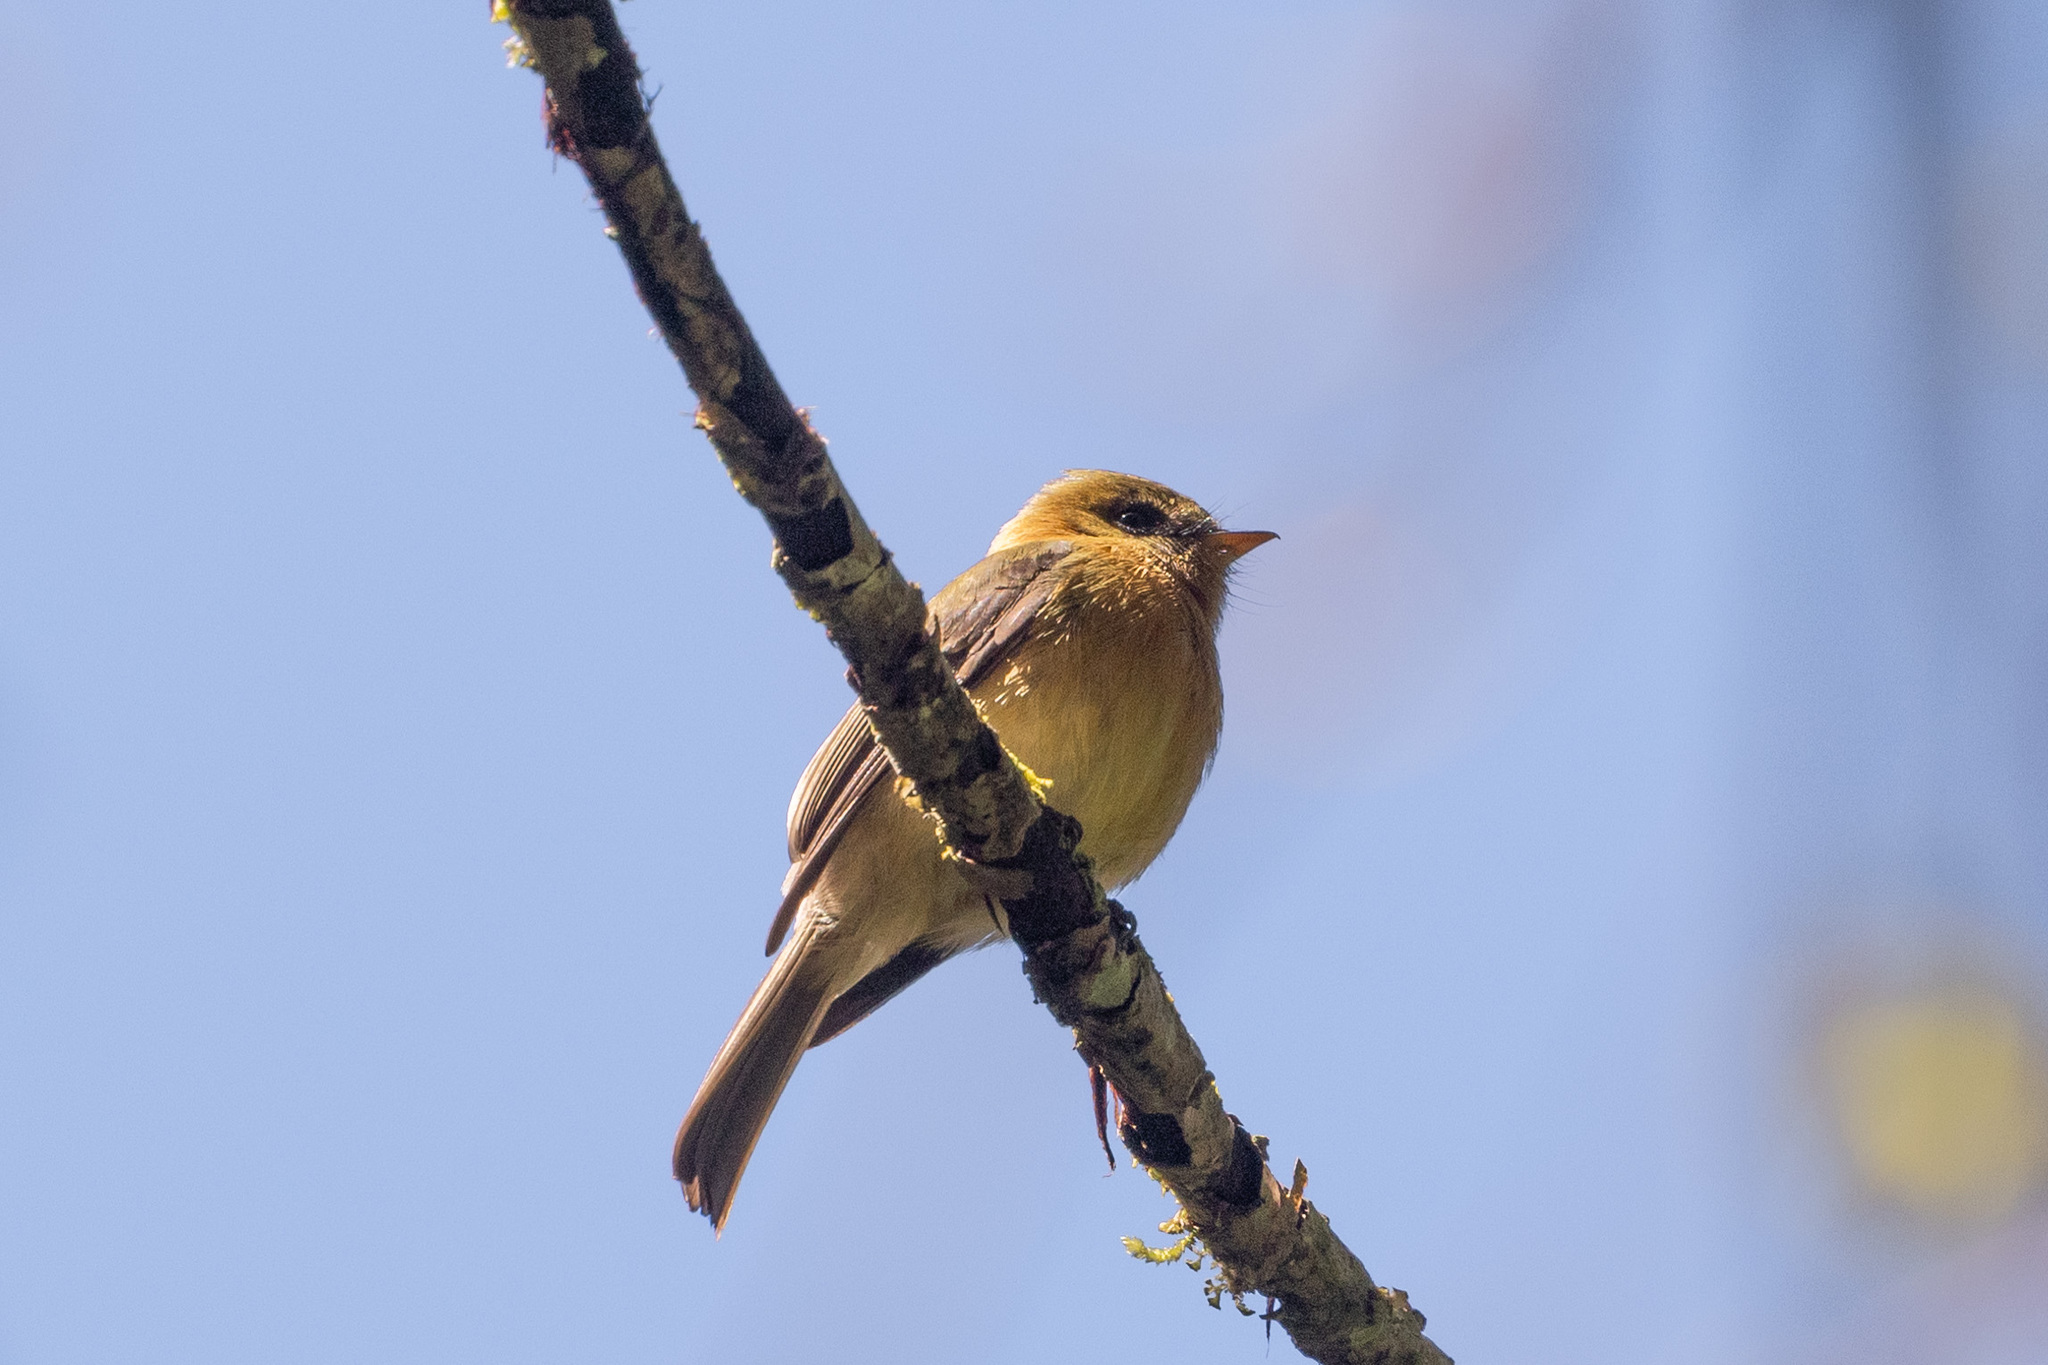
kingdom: Animalia
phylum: Chordata
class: Aves
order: Passeriformes
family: Tyrannidae
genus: Mitrephanes
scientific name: Mitrephanes phaeocercus
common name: Northern tufted flycatcher
